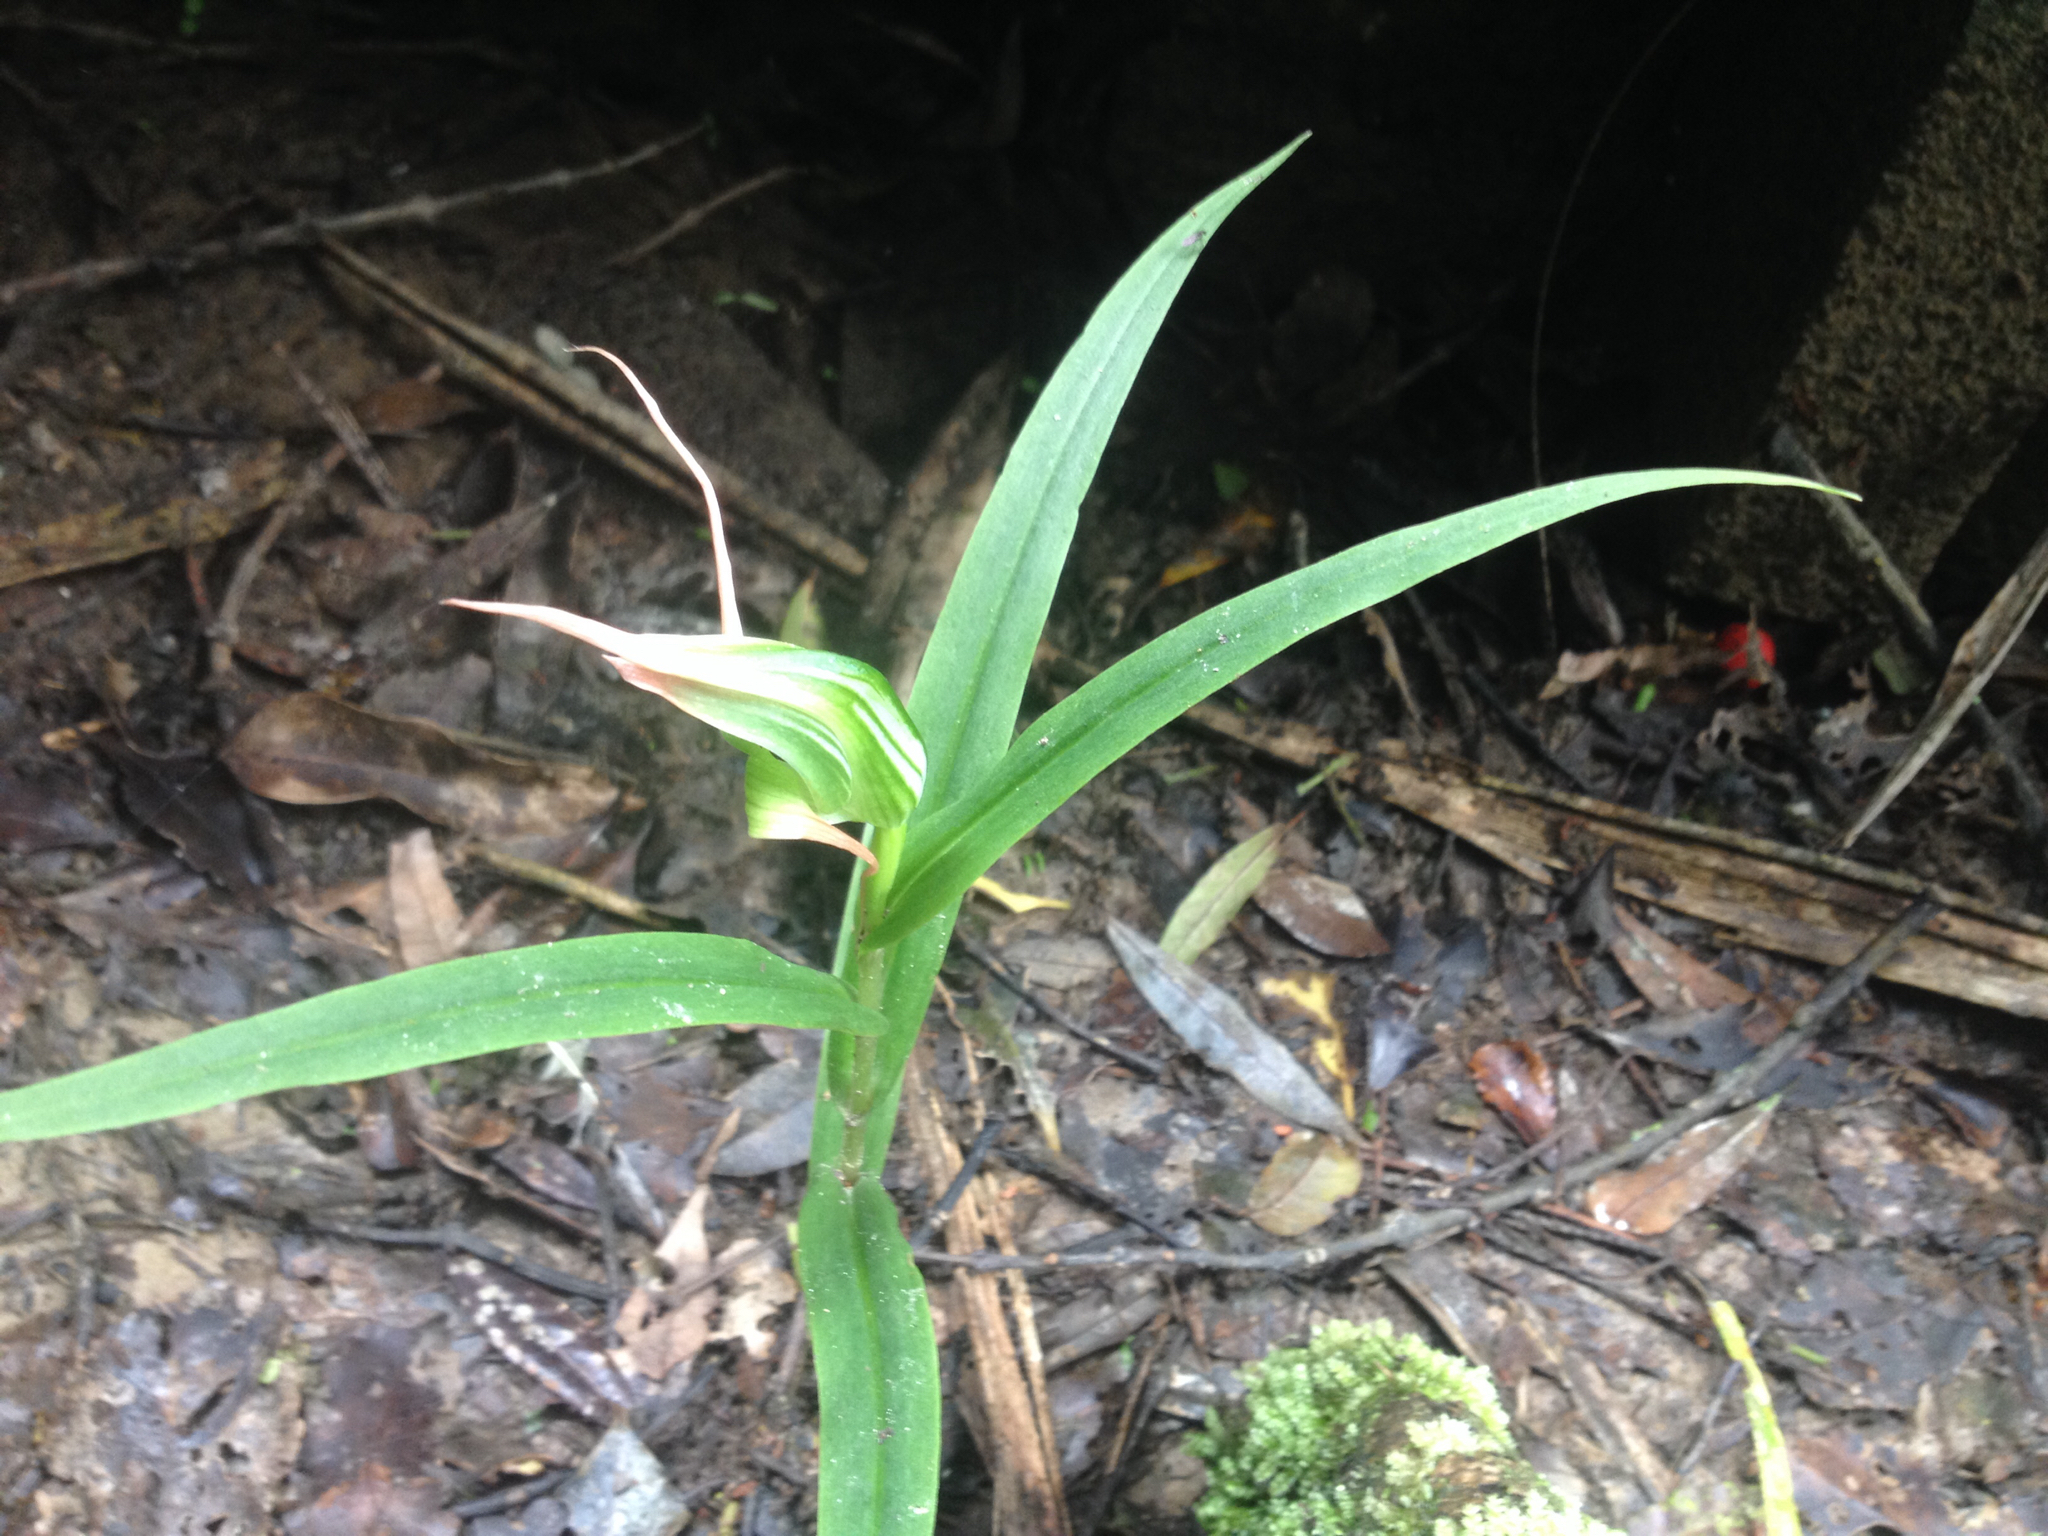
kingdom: Plantae
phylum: Tracheophyta
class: Liliopsida
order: Asparagales
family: Orchidaceae
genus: Pterostylis
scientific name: Pterostylis banksii
